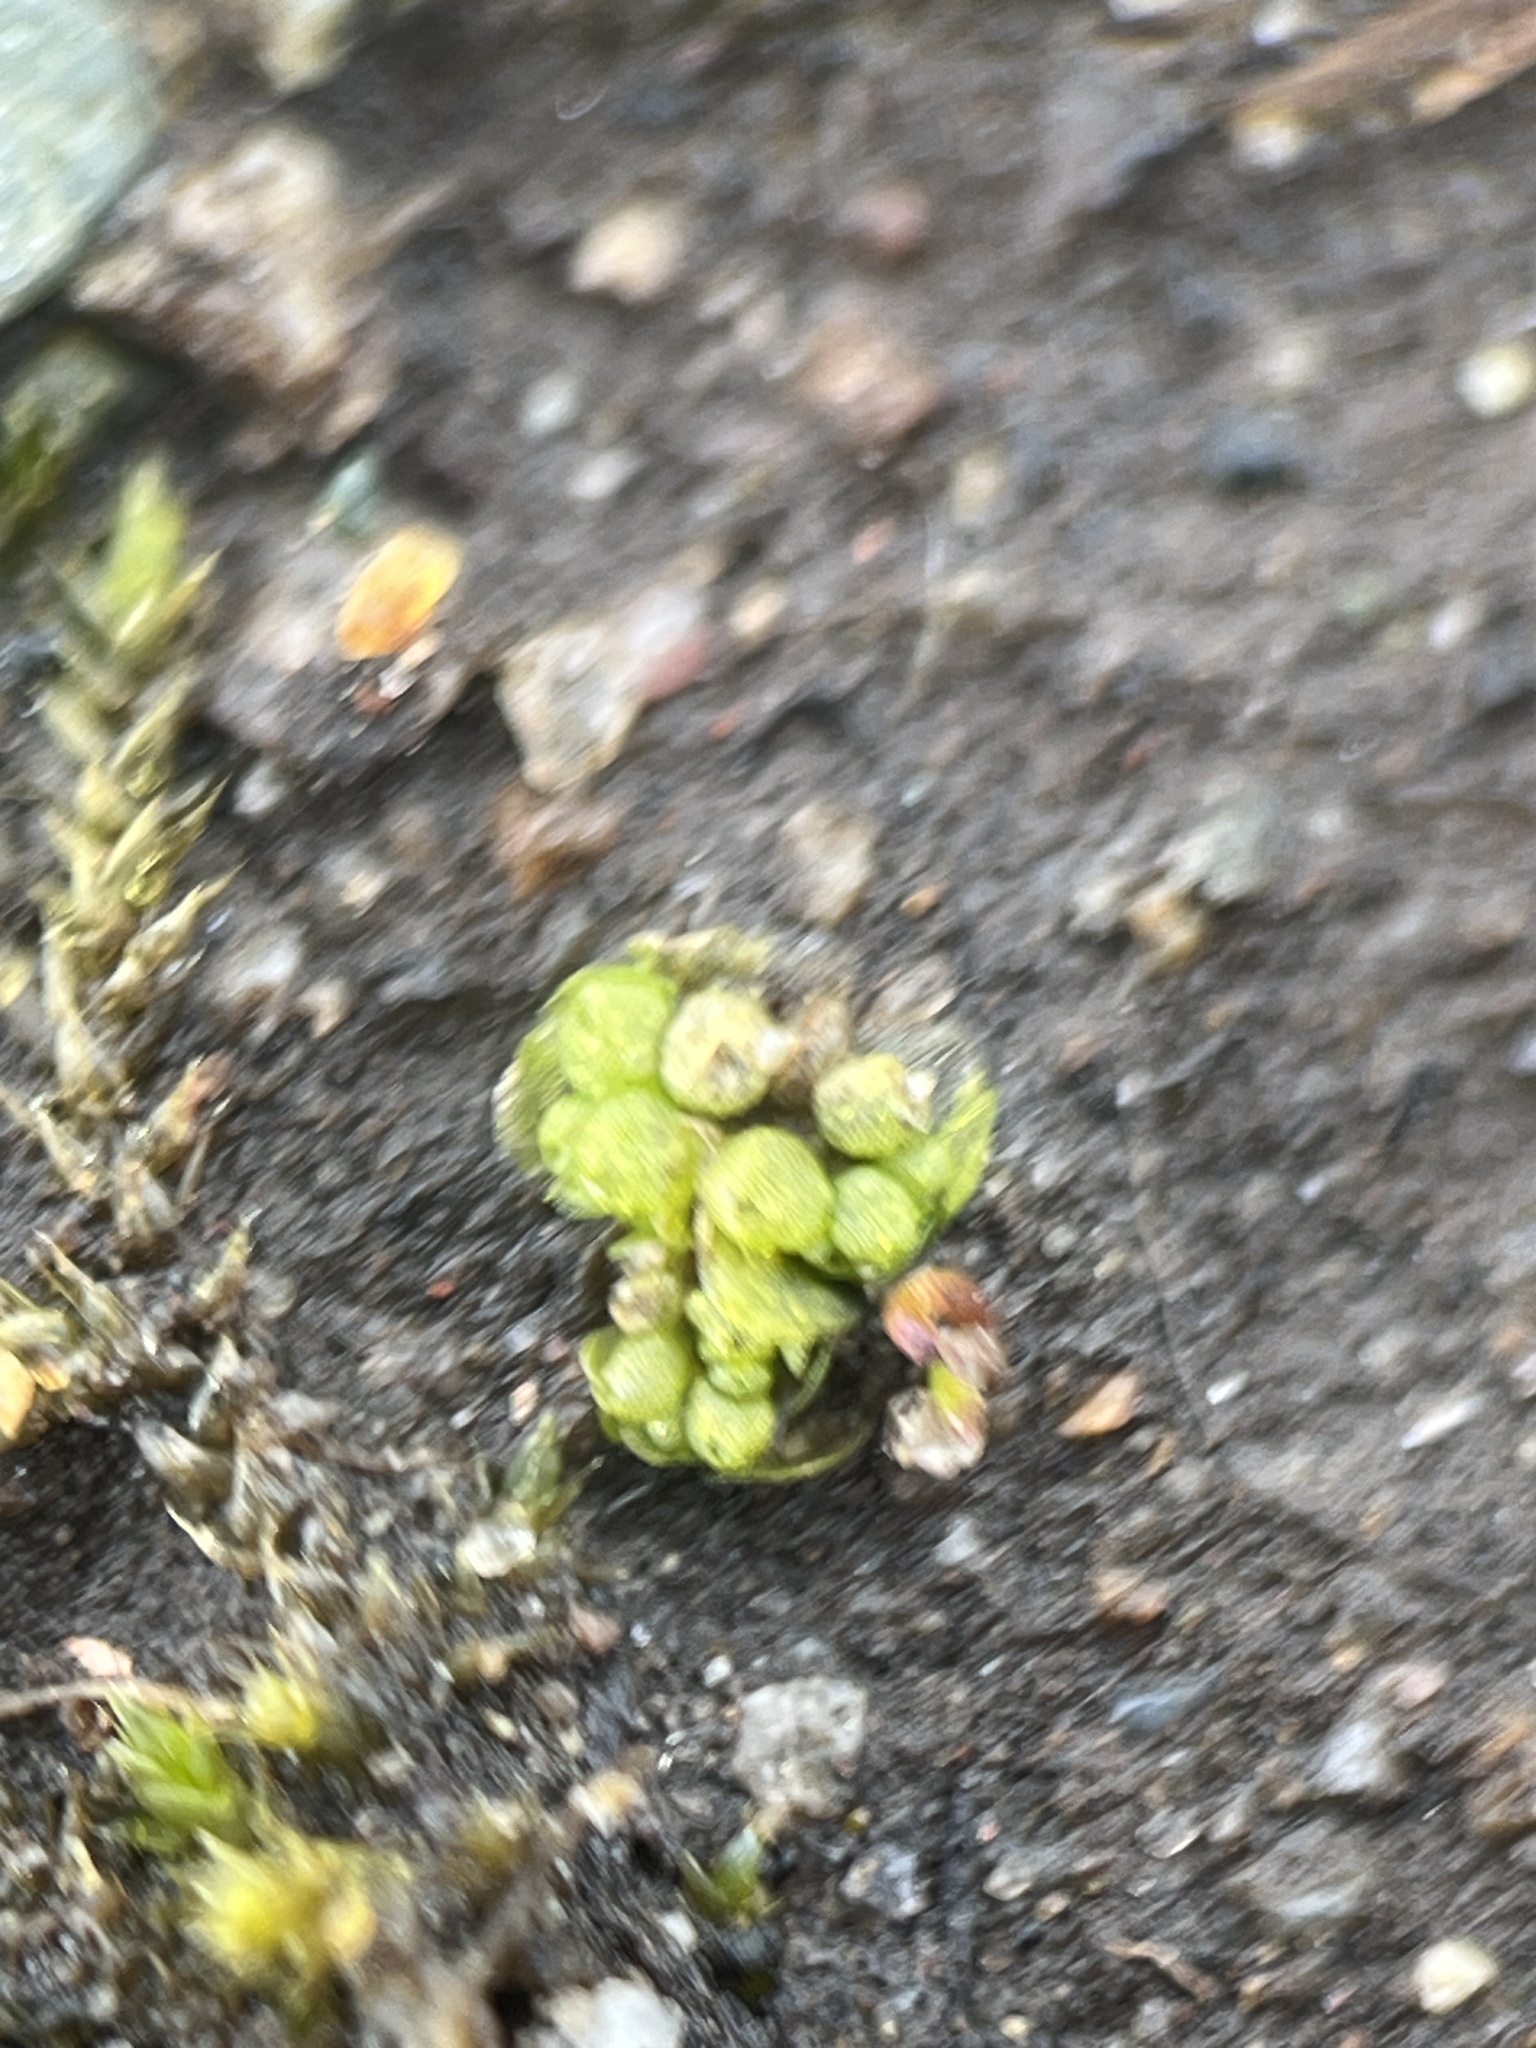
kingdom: Plantae
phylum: Marchantiophyta
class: Marchantiopsida
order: Sphaerocarpales
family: Sphaerocarpaceae
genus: Sphaerocarpos
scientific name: Sphaerocarpos texanus
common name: Texas balloonwort
